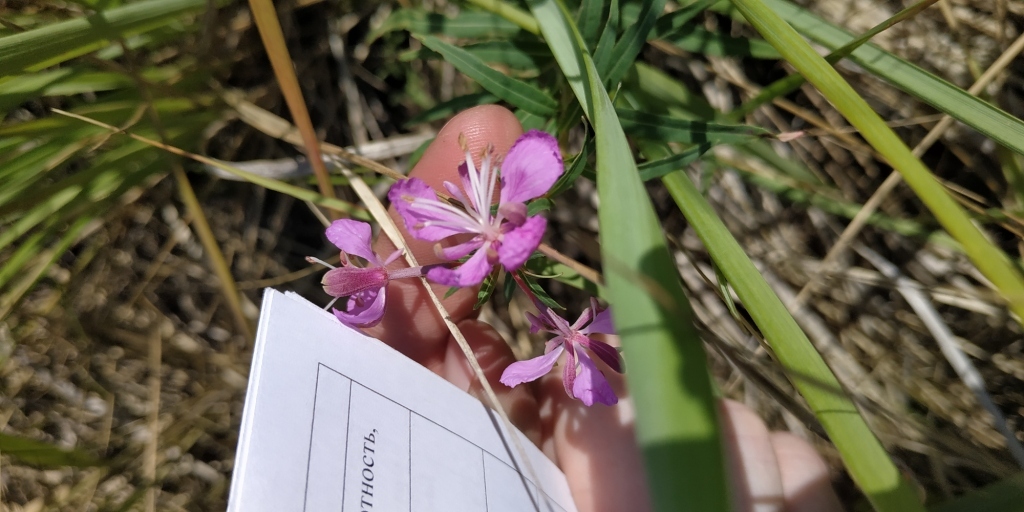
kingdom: Plantae
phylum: Tracheophyta
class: Magnoliopsida
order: Myrtales
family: Onagraceae
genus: Chamaenerion
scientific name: Chamaenerion angustifolium
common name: Fireweed
